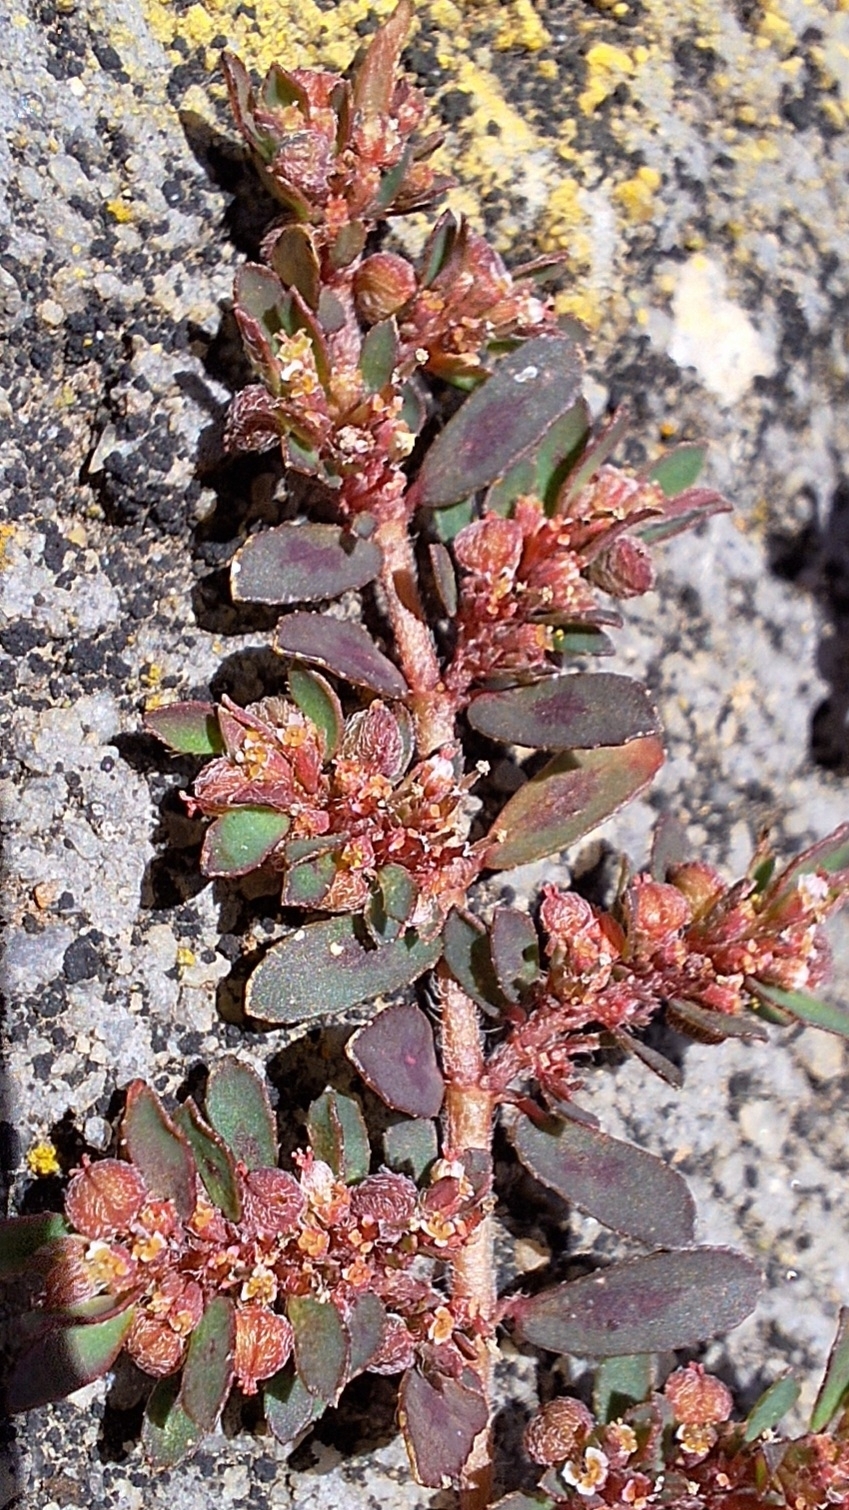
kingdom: Plantae
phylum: Tracheophyta
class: Magnoliopsida
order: Malpighiales
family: Euphorbiaceae
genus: Euphorbia
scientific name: Euphorbia maculata
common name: Spotted spurge
